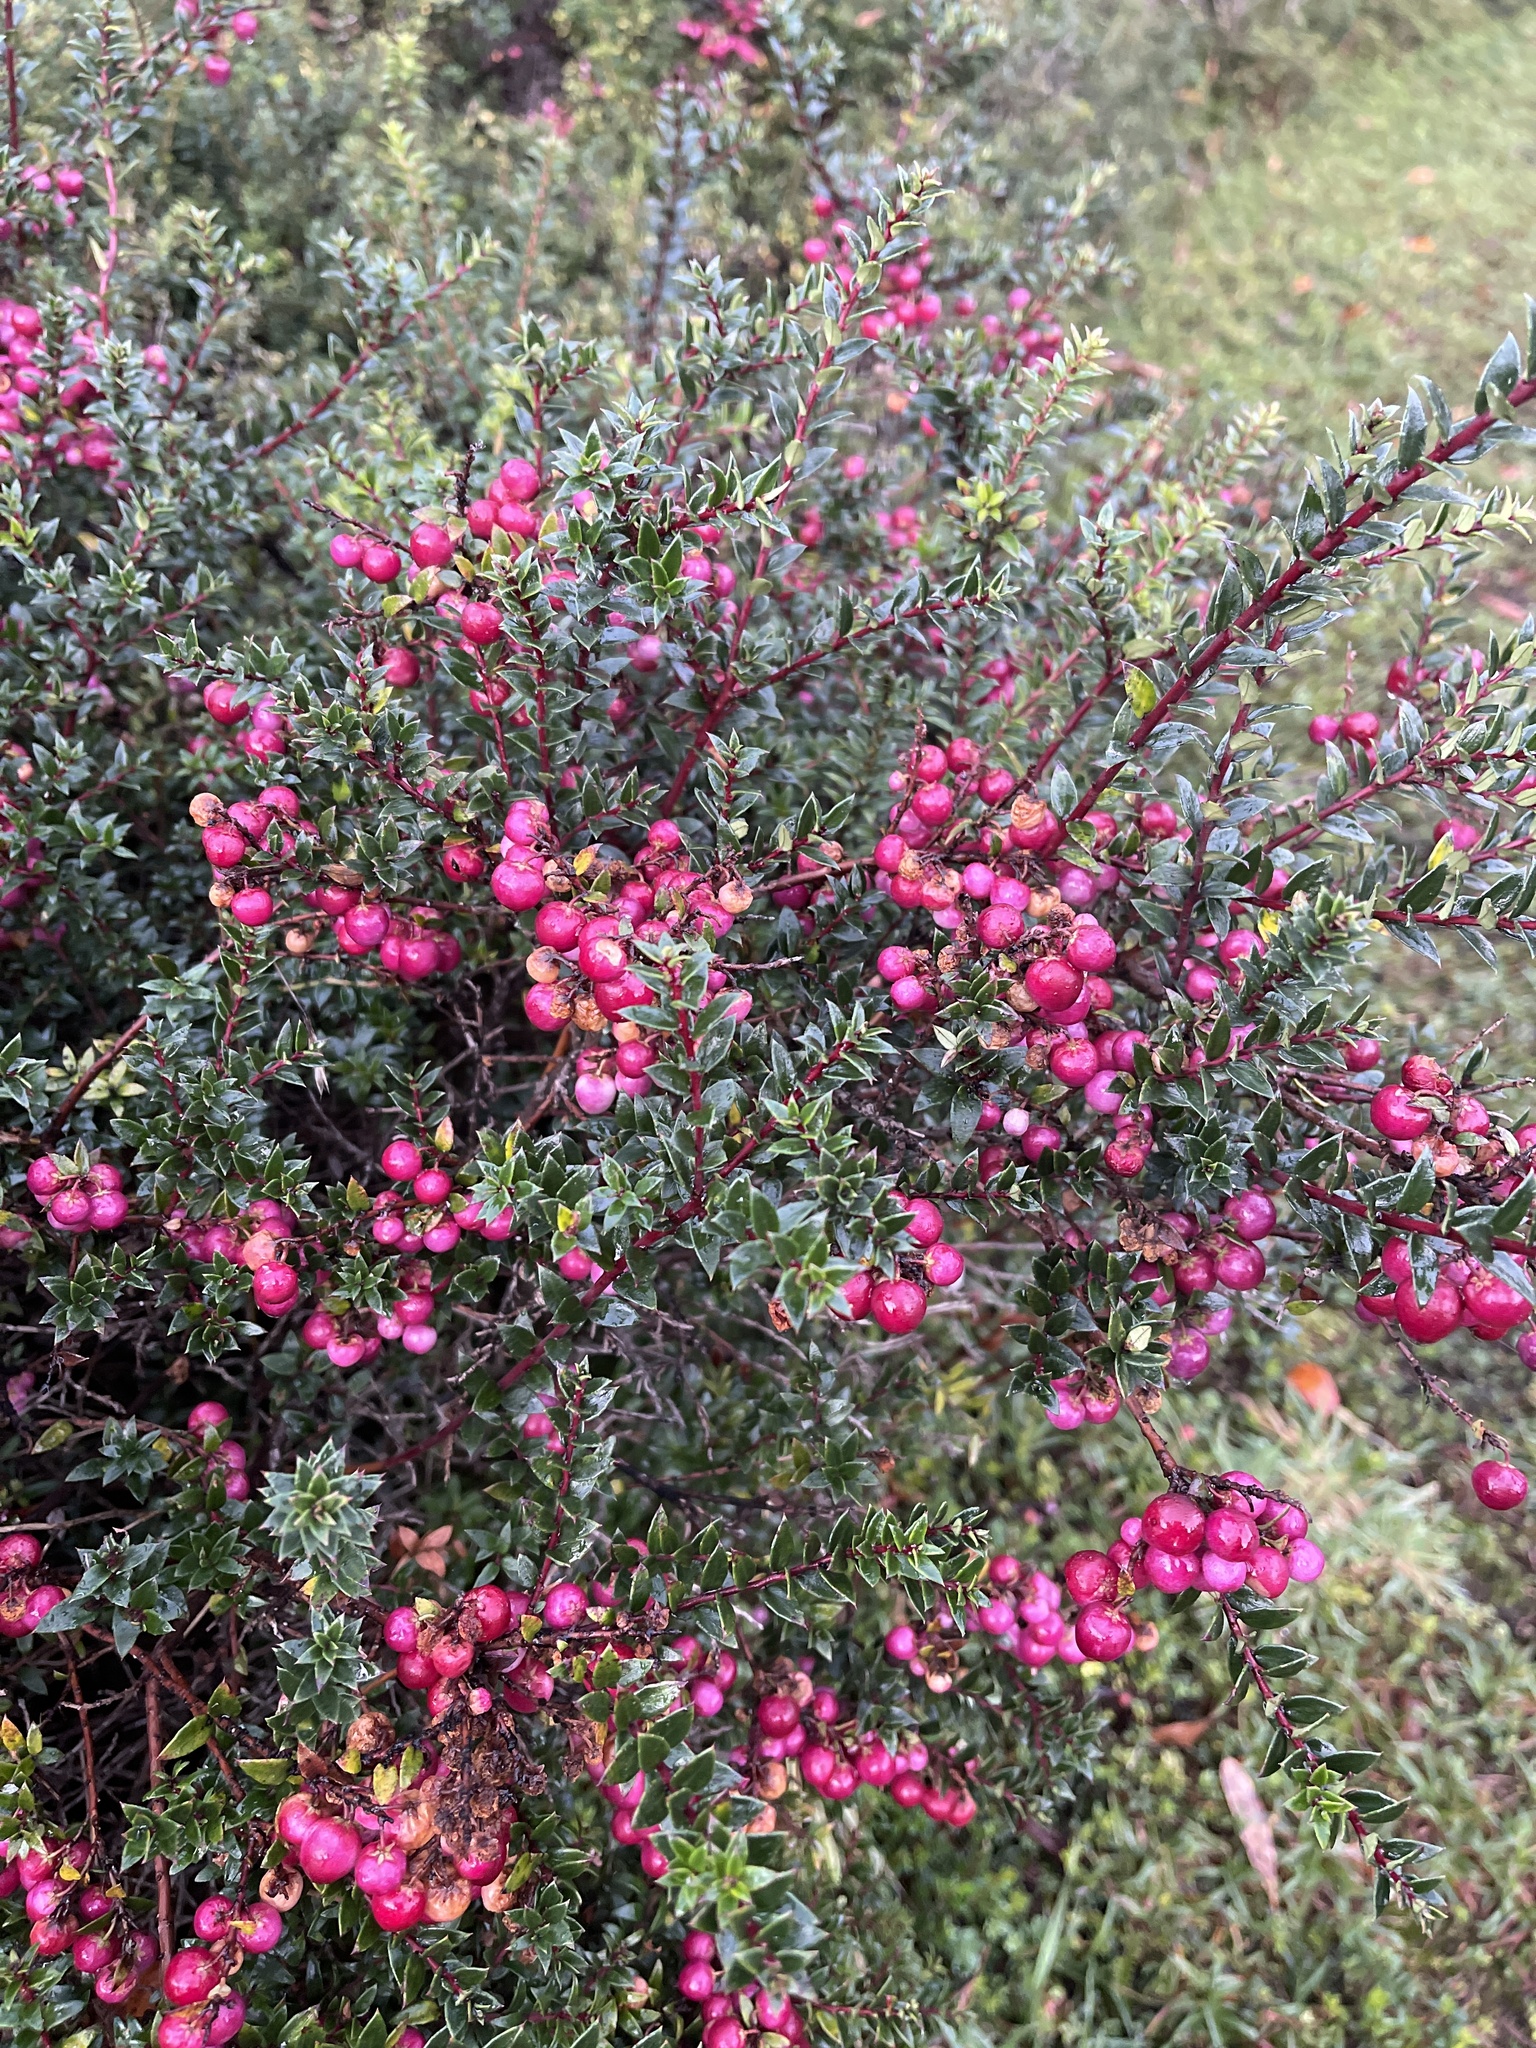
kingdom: Plantae
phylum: Tracheophyta
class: Magnoliopsida
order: Ericales
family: Ericaceae
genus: Gaultheria
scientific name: Gaultheria mucronata
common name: Prickly heath
